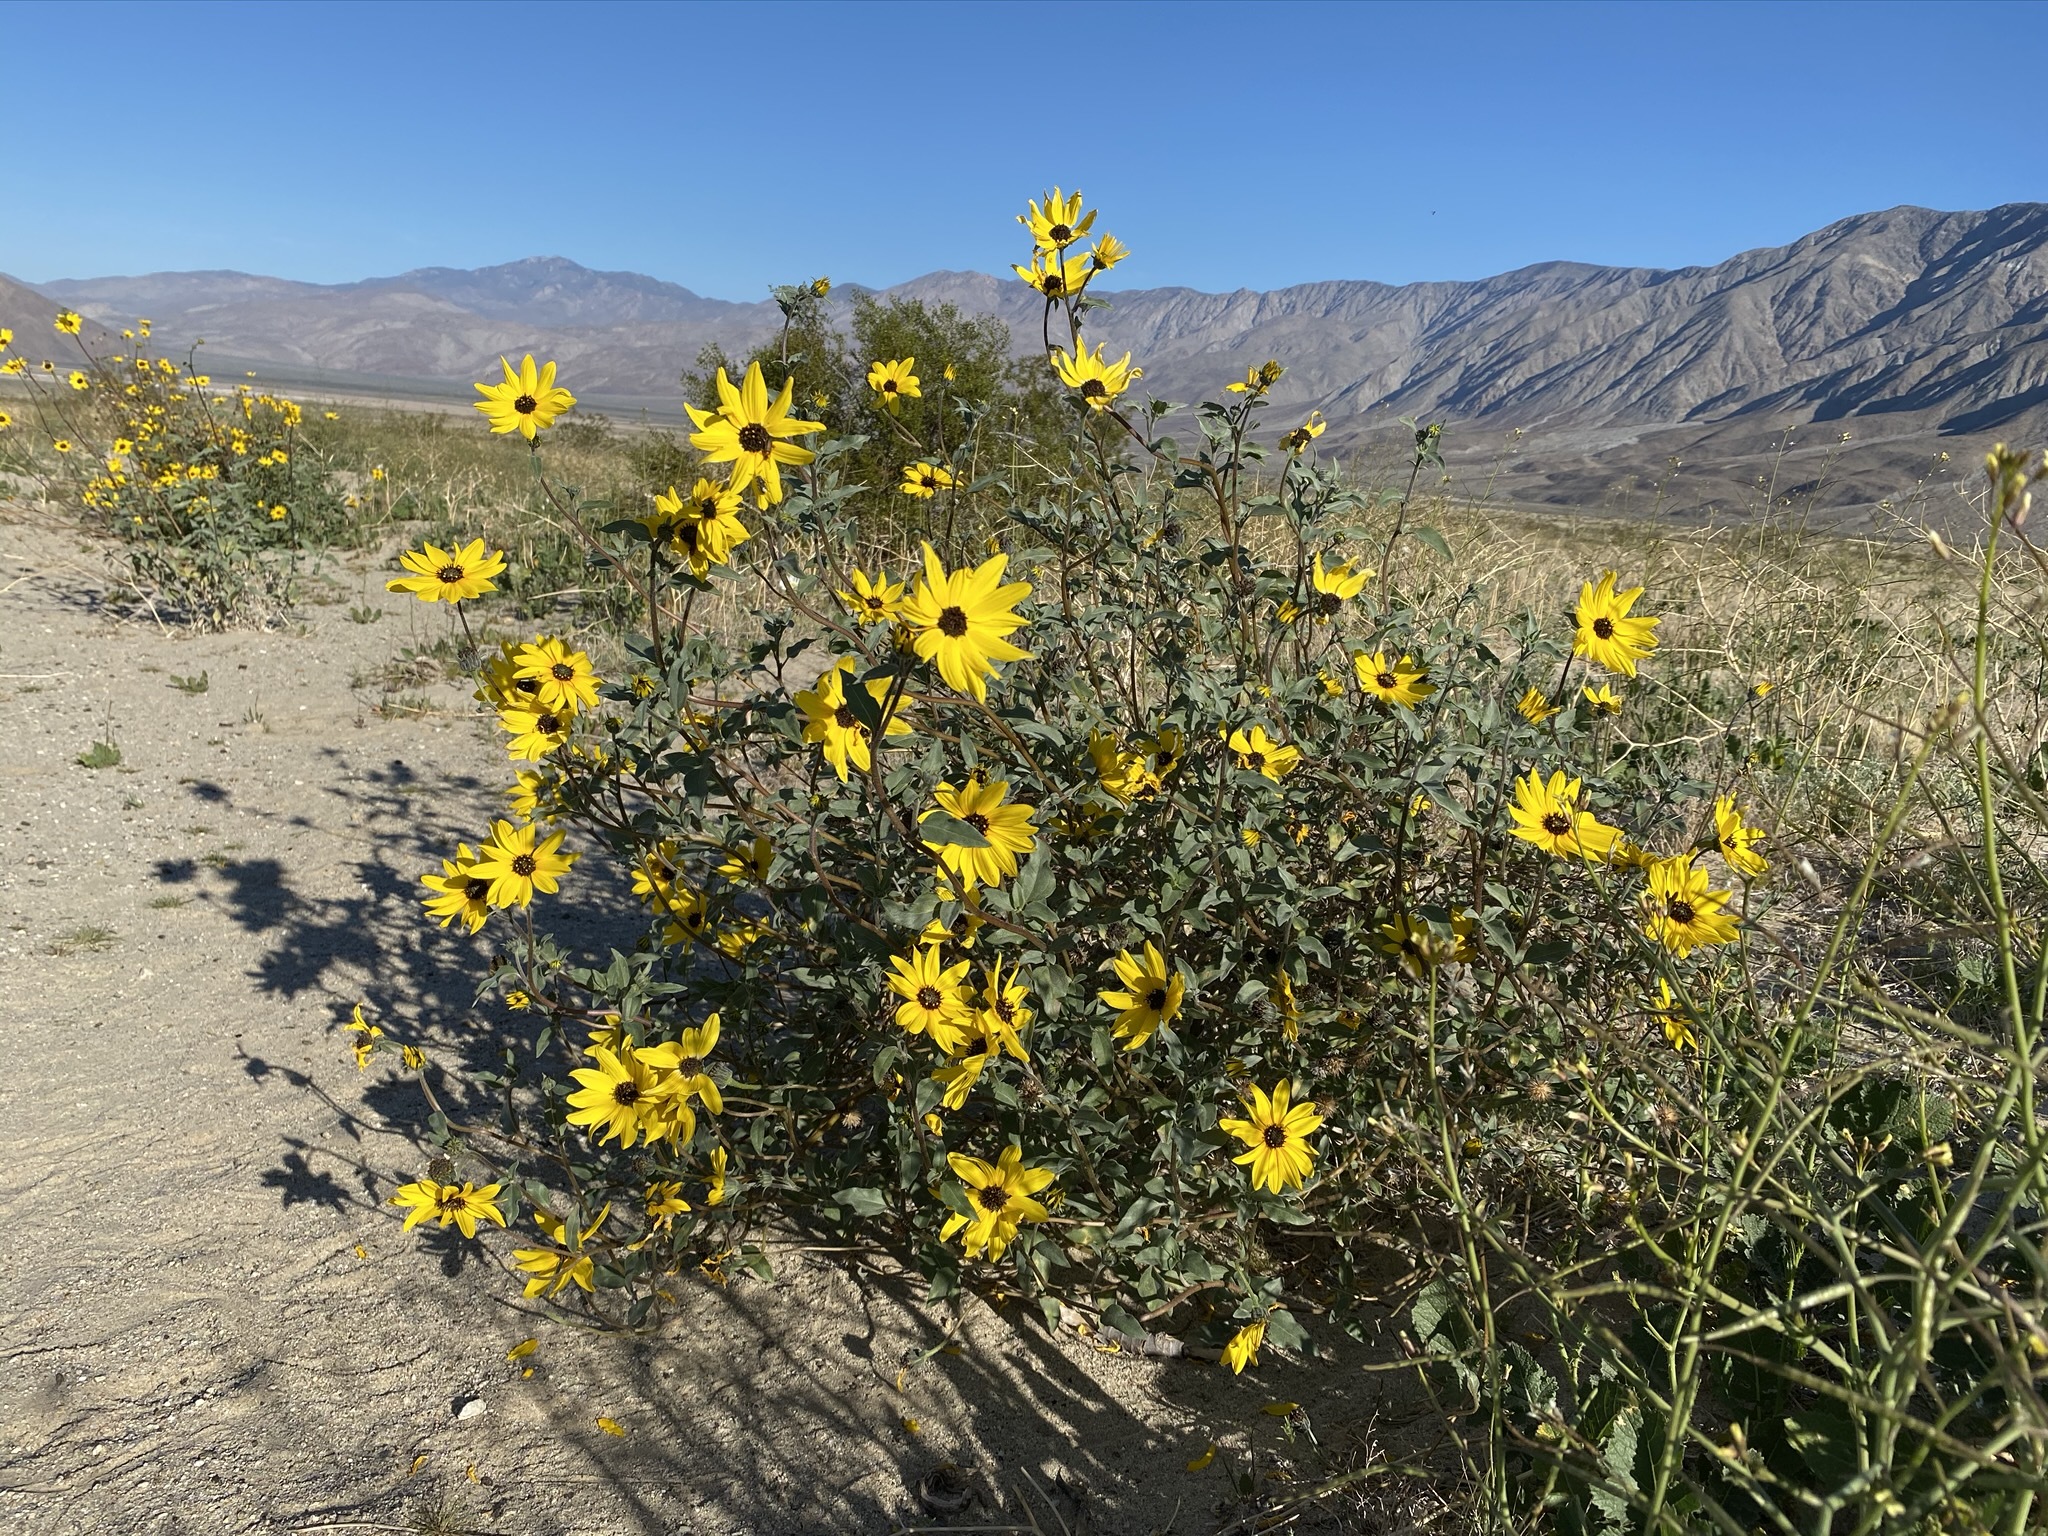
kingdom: Plantae
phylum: Tracheophyta
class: Magnoliopsida
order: Asterales
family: Asteraceae
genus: Helianthus
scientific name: Helianthus petiolaris
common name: Lesser sunflower
